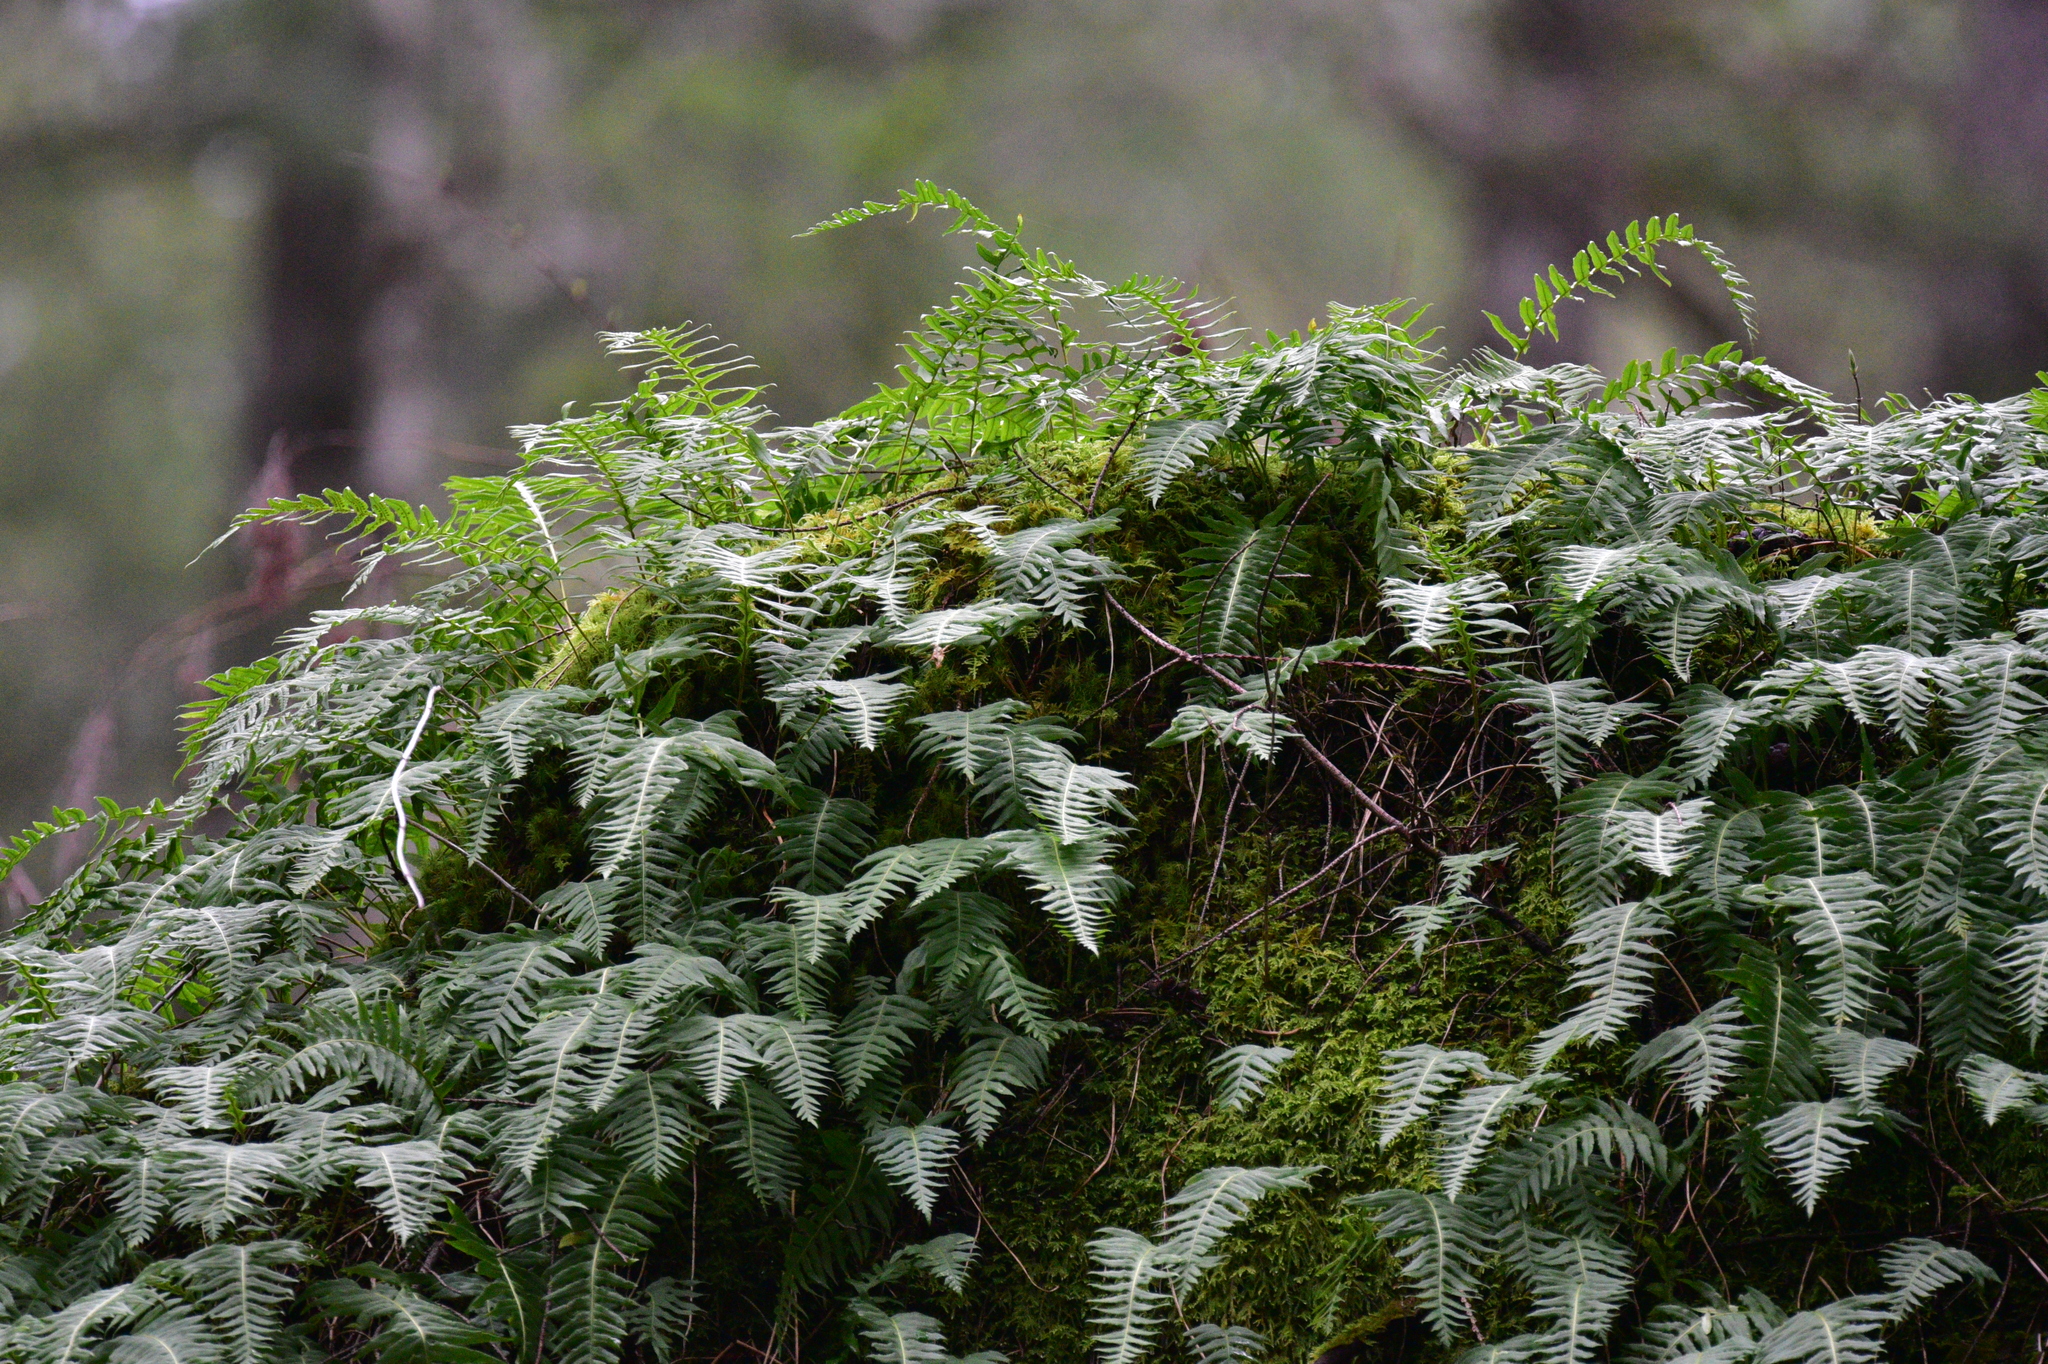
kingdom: Plantae
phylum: Tracheophyta
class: Polypodiopsida
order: Polypodiales
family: Polypodiaceae
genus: Polypodium
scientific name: Polypodium glycyrrhiza
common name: Licorice fern
